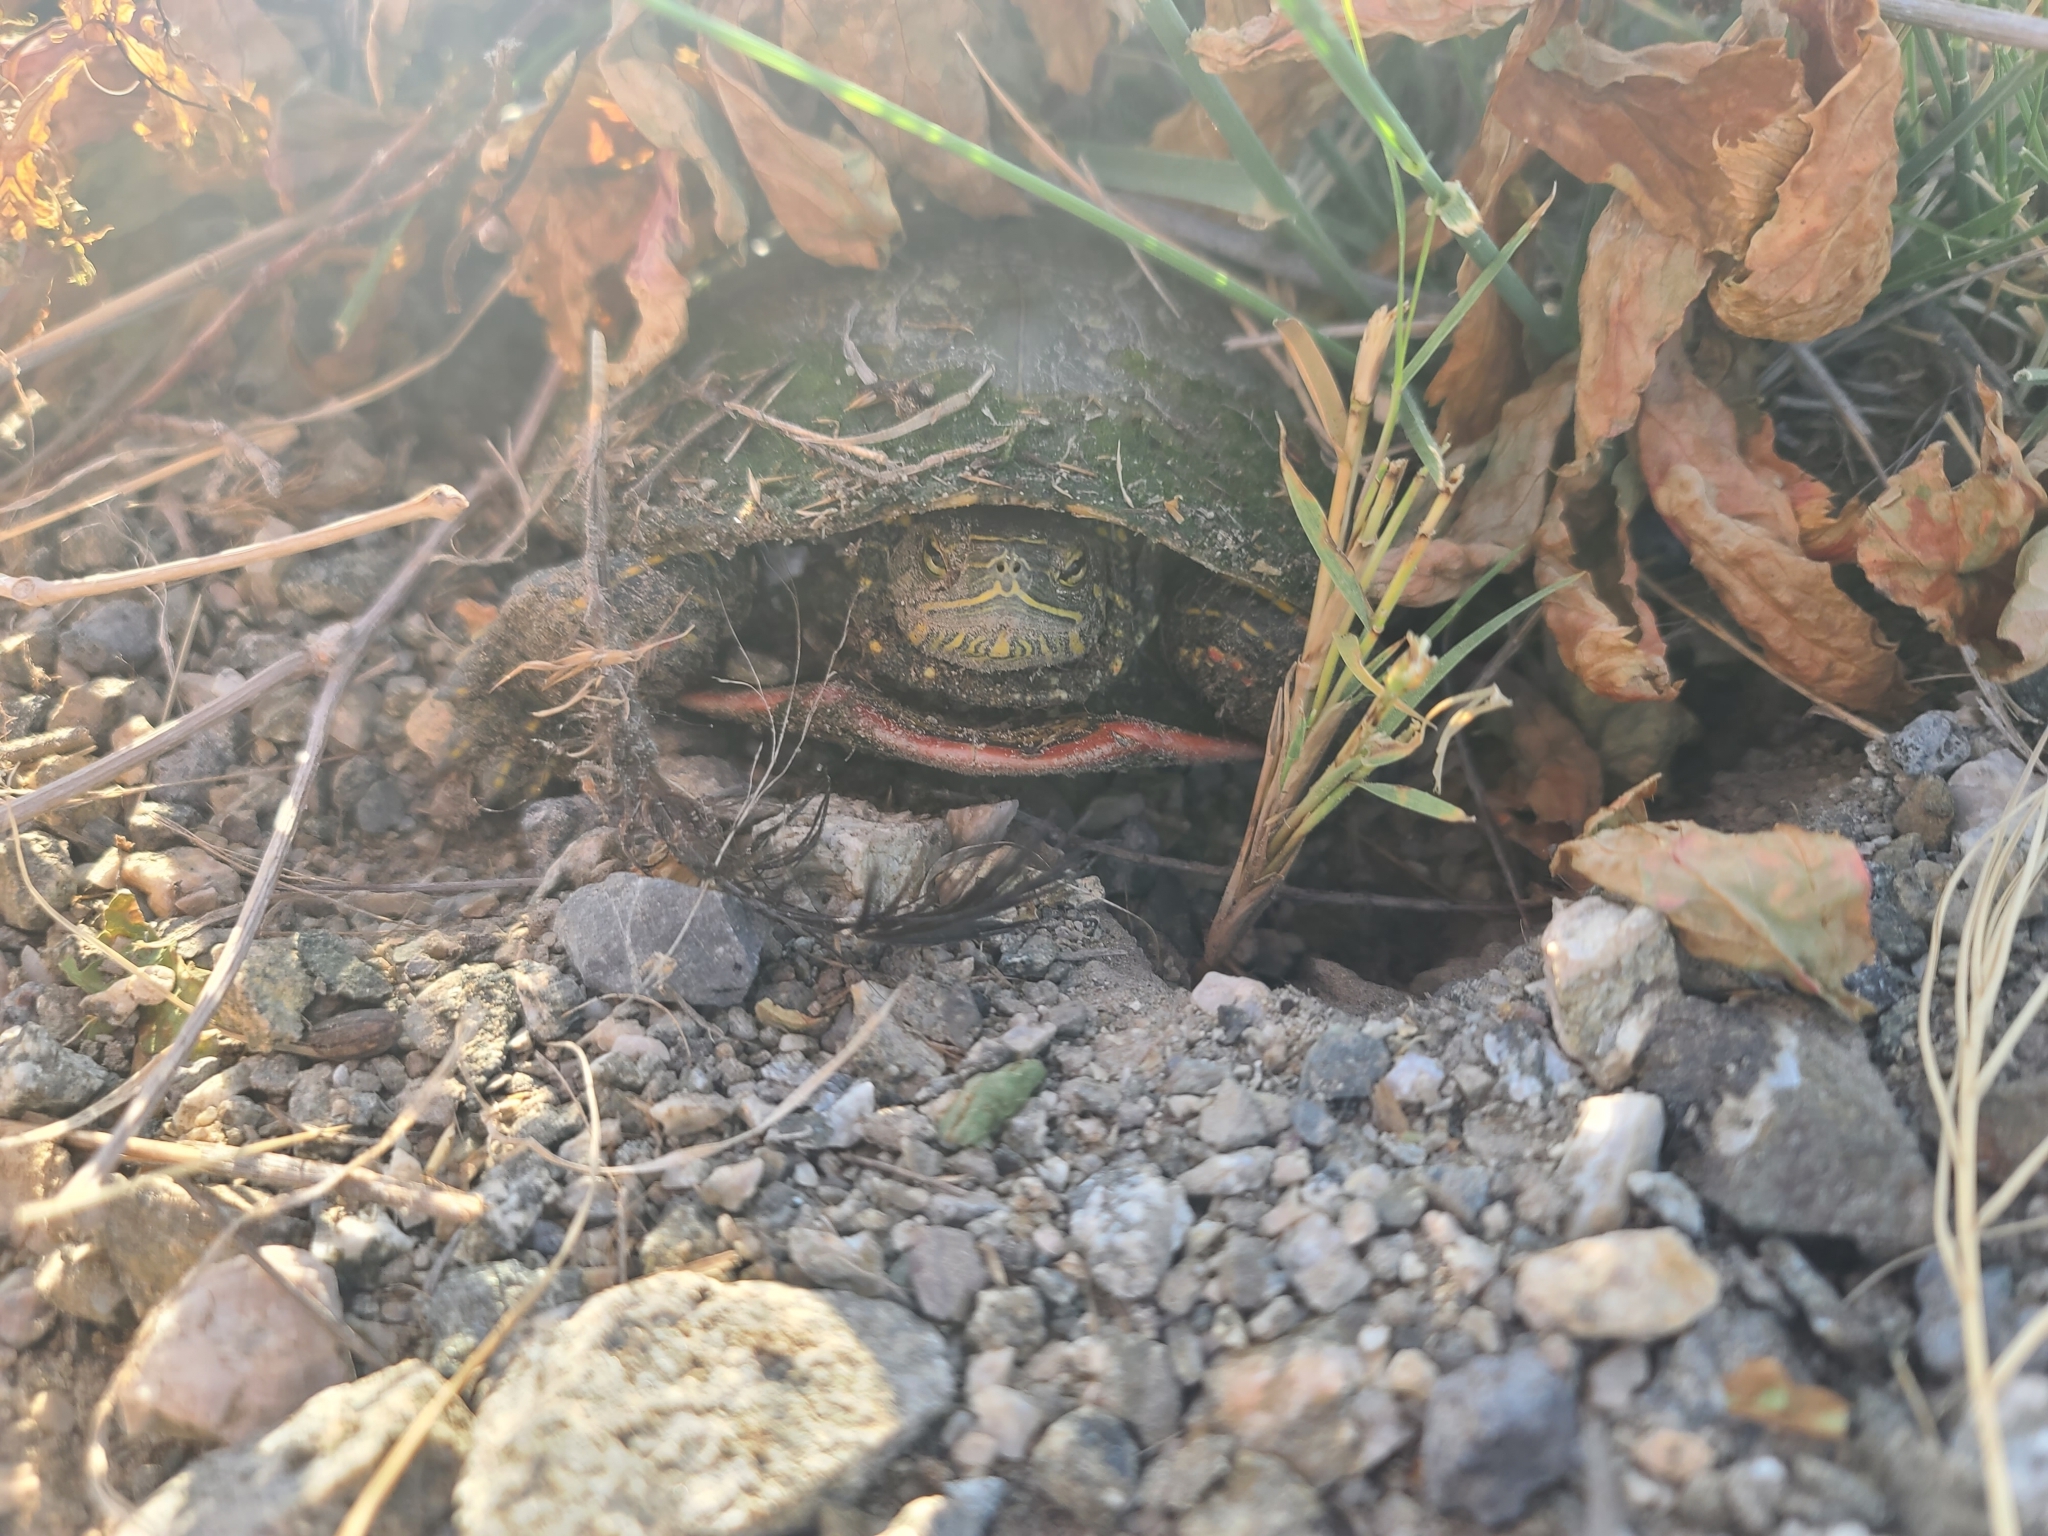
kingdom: Animalia
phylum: Chordata
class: Testudines
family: Emydidae
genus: Chrysemys
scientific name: Chrysemys picta
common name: Painted turtle
